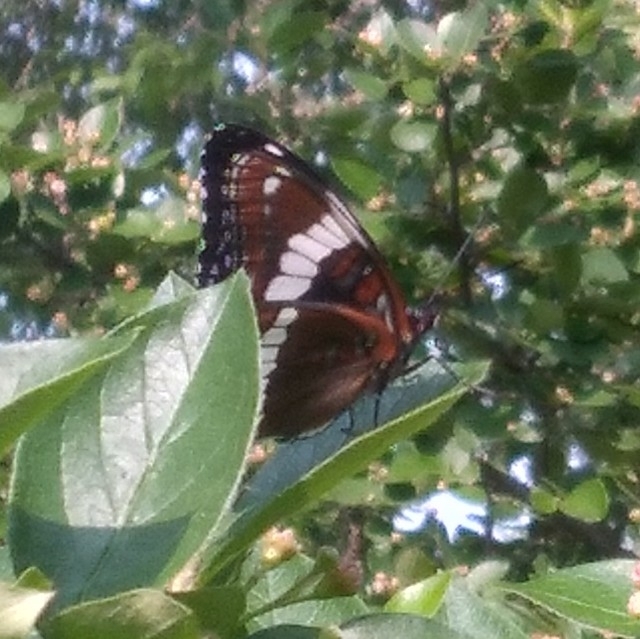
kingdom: Animalia
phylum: Arthropoda
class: Insecta
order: Lepidoptera
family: Nymphalidae
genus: Limenitis
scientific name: Limenitis arthemis
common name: Red-spotted admiral
